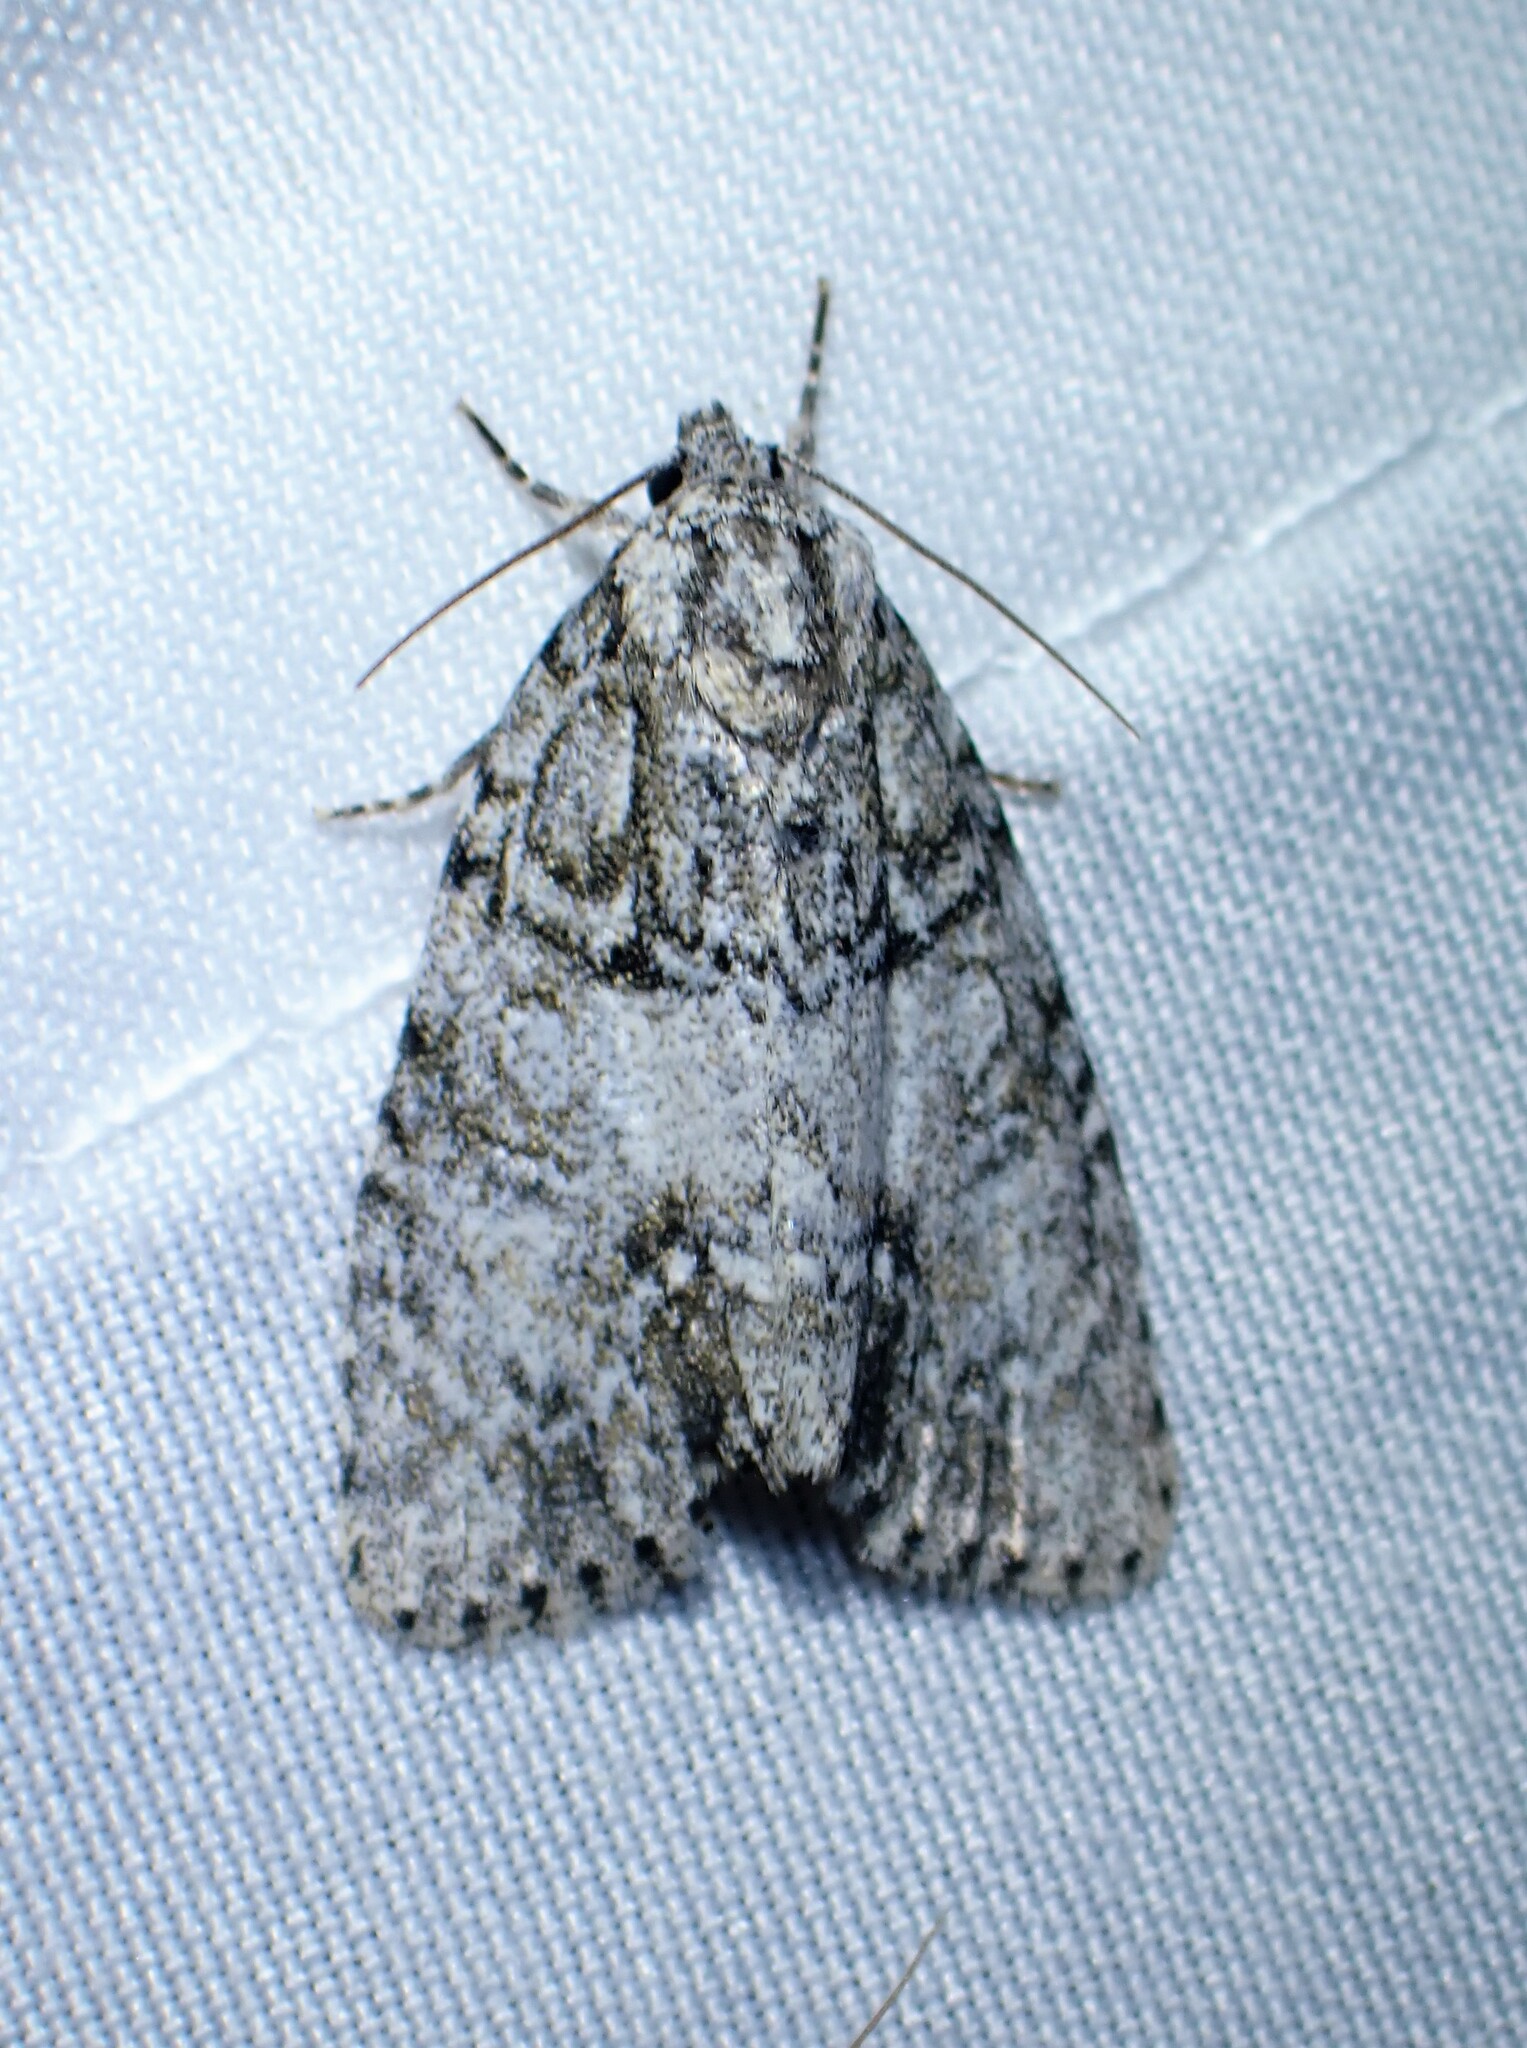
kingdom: Animalia
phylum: Arthropoda
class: Insecta
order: Lepidoptera
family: Noctuidae
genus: Acronicta
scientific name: Acronicta retardata
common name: Maple dagger
